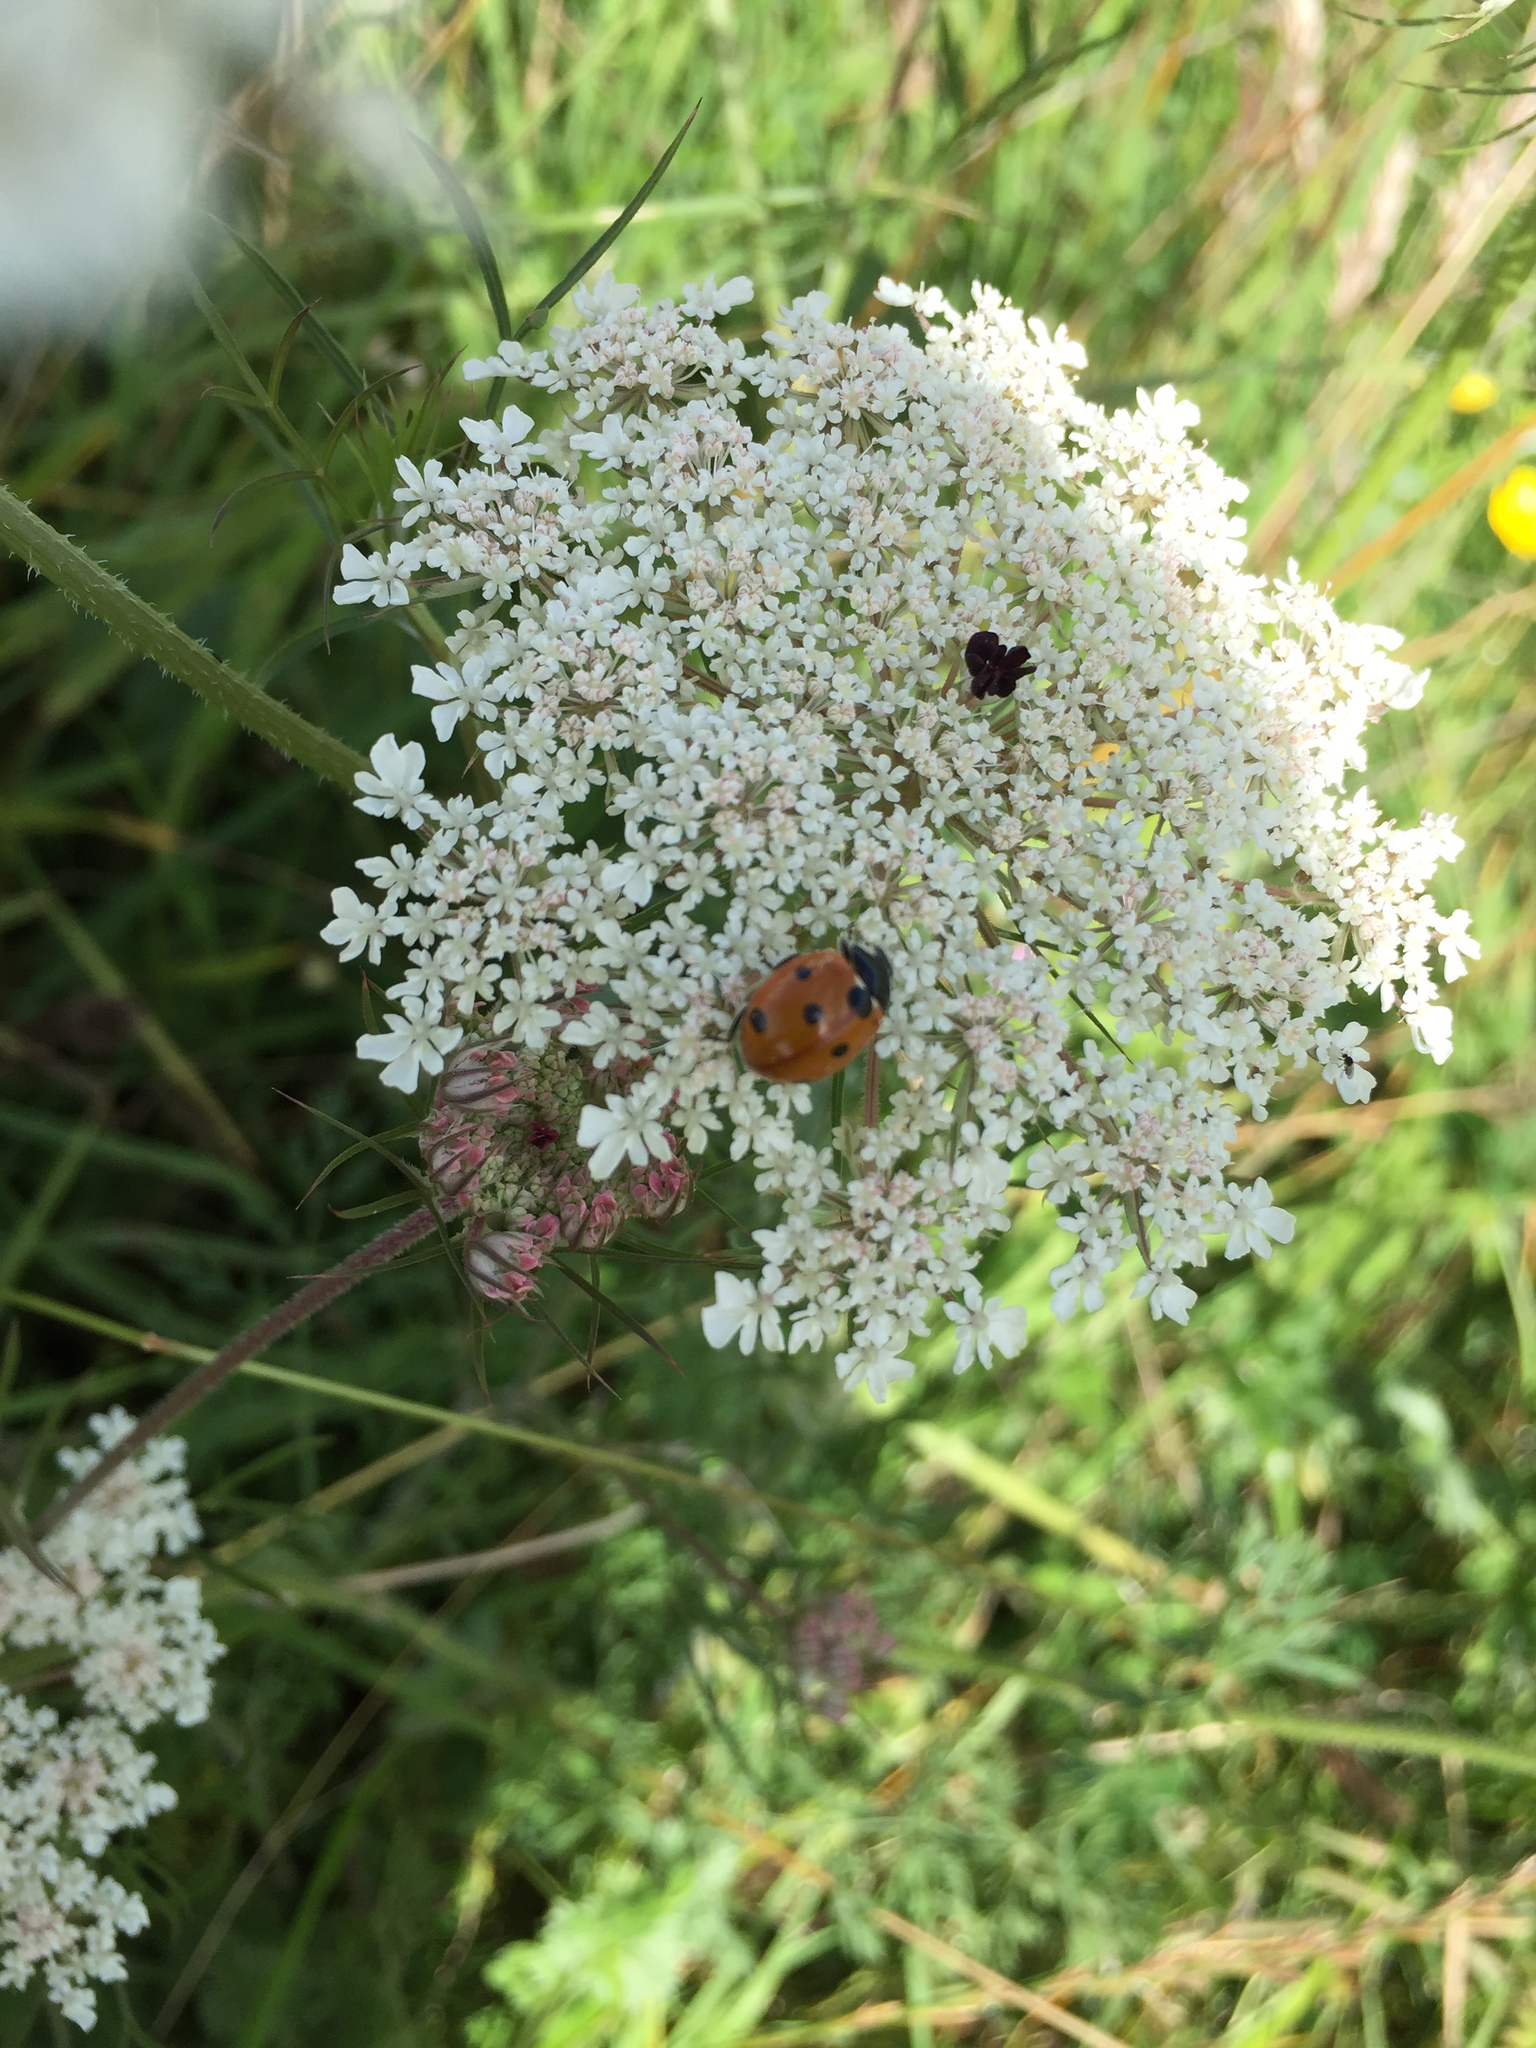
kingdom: Animalia
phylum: Arthropoda
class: Insecta
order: Coleoptera
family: Coccinellidae
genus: Coccinella
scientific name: Coccinella septempunctata
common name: Sevenspotted lady beetle
